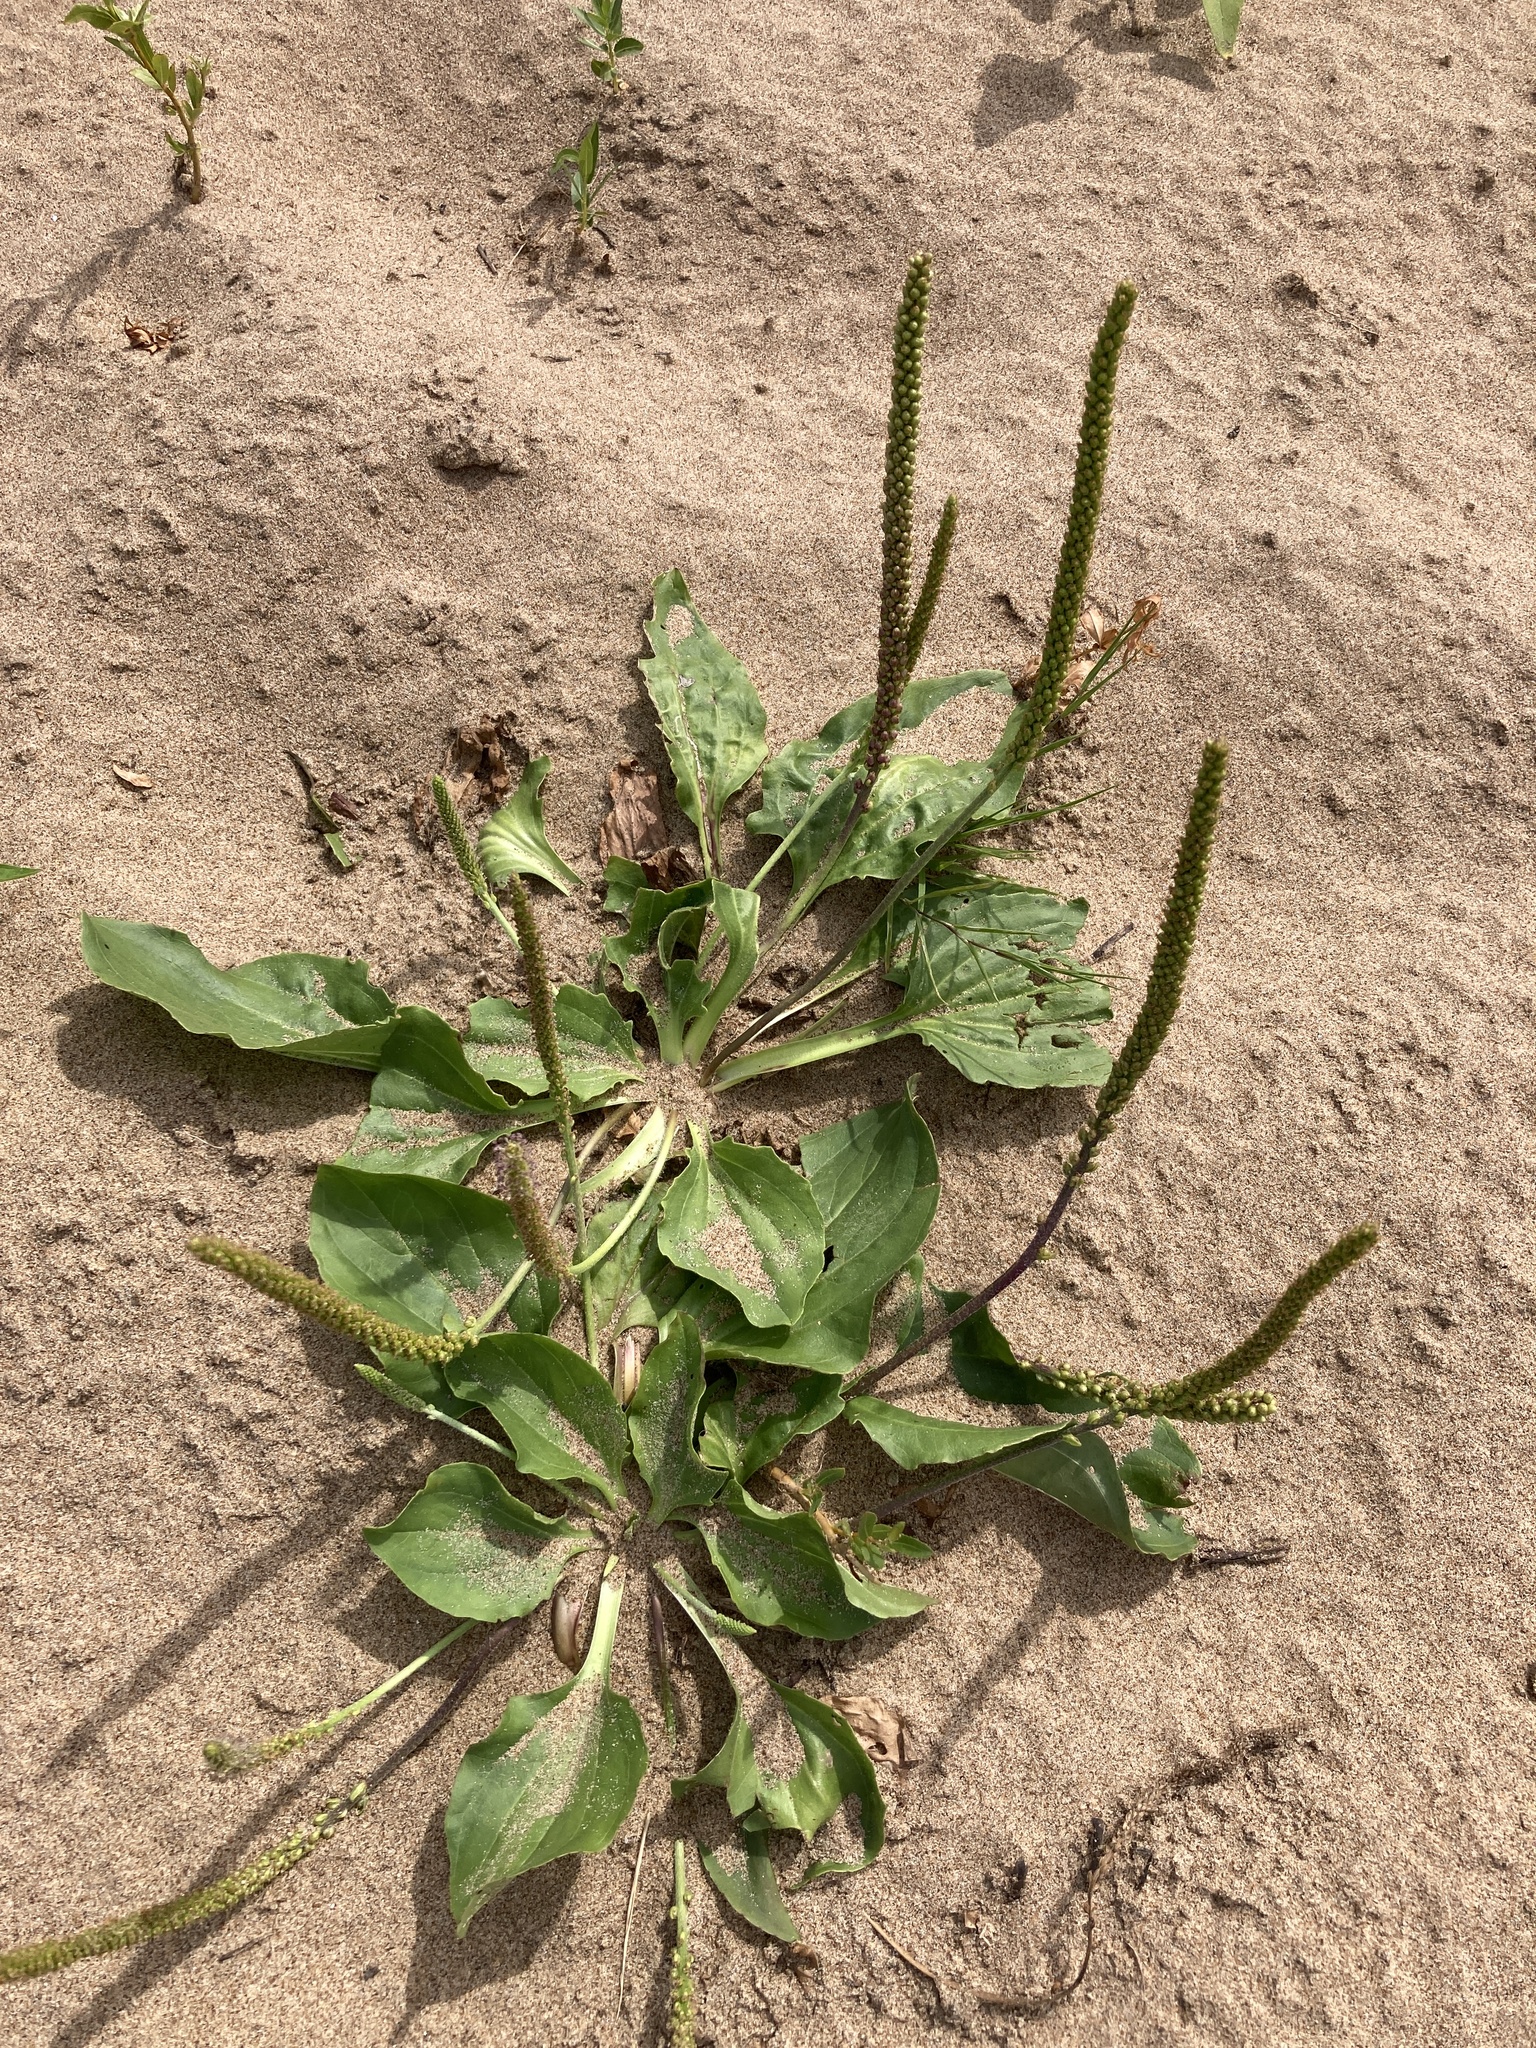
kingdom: Plantae
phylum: Tracheophyta
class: Magnoliopsida
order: Lamiales
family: Plantaginaceae
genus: Plantago
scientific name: Plantago major
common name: Common plantain
